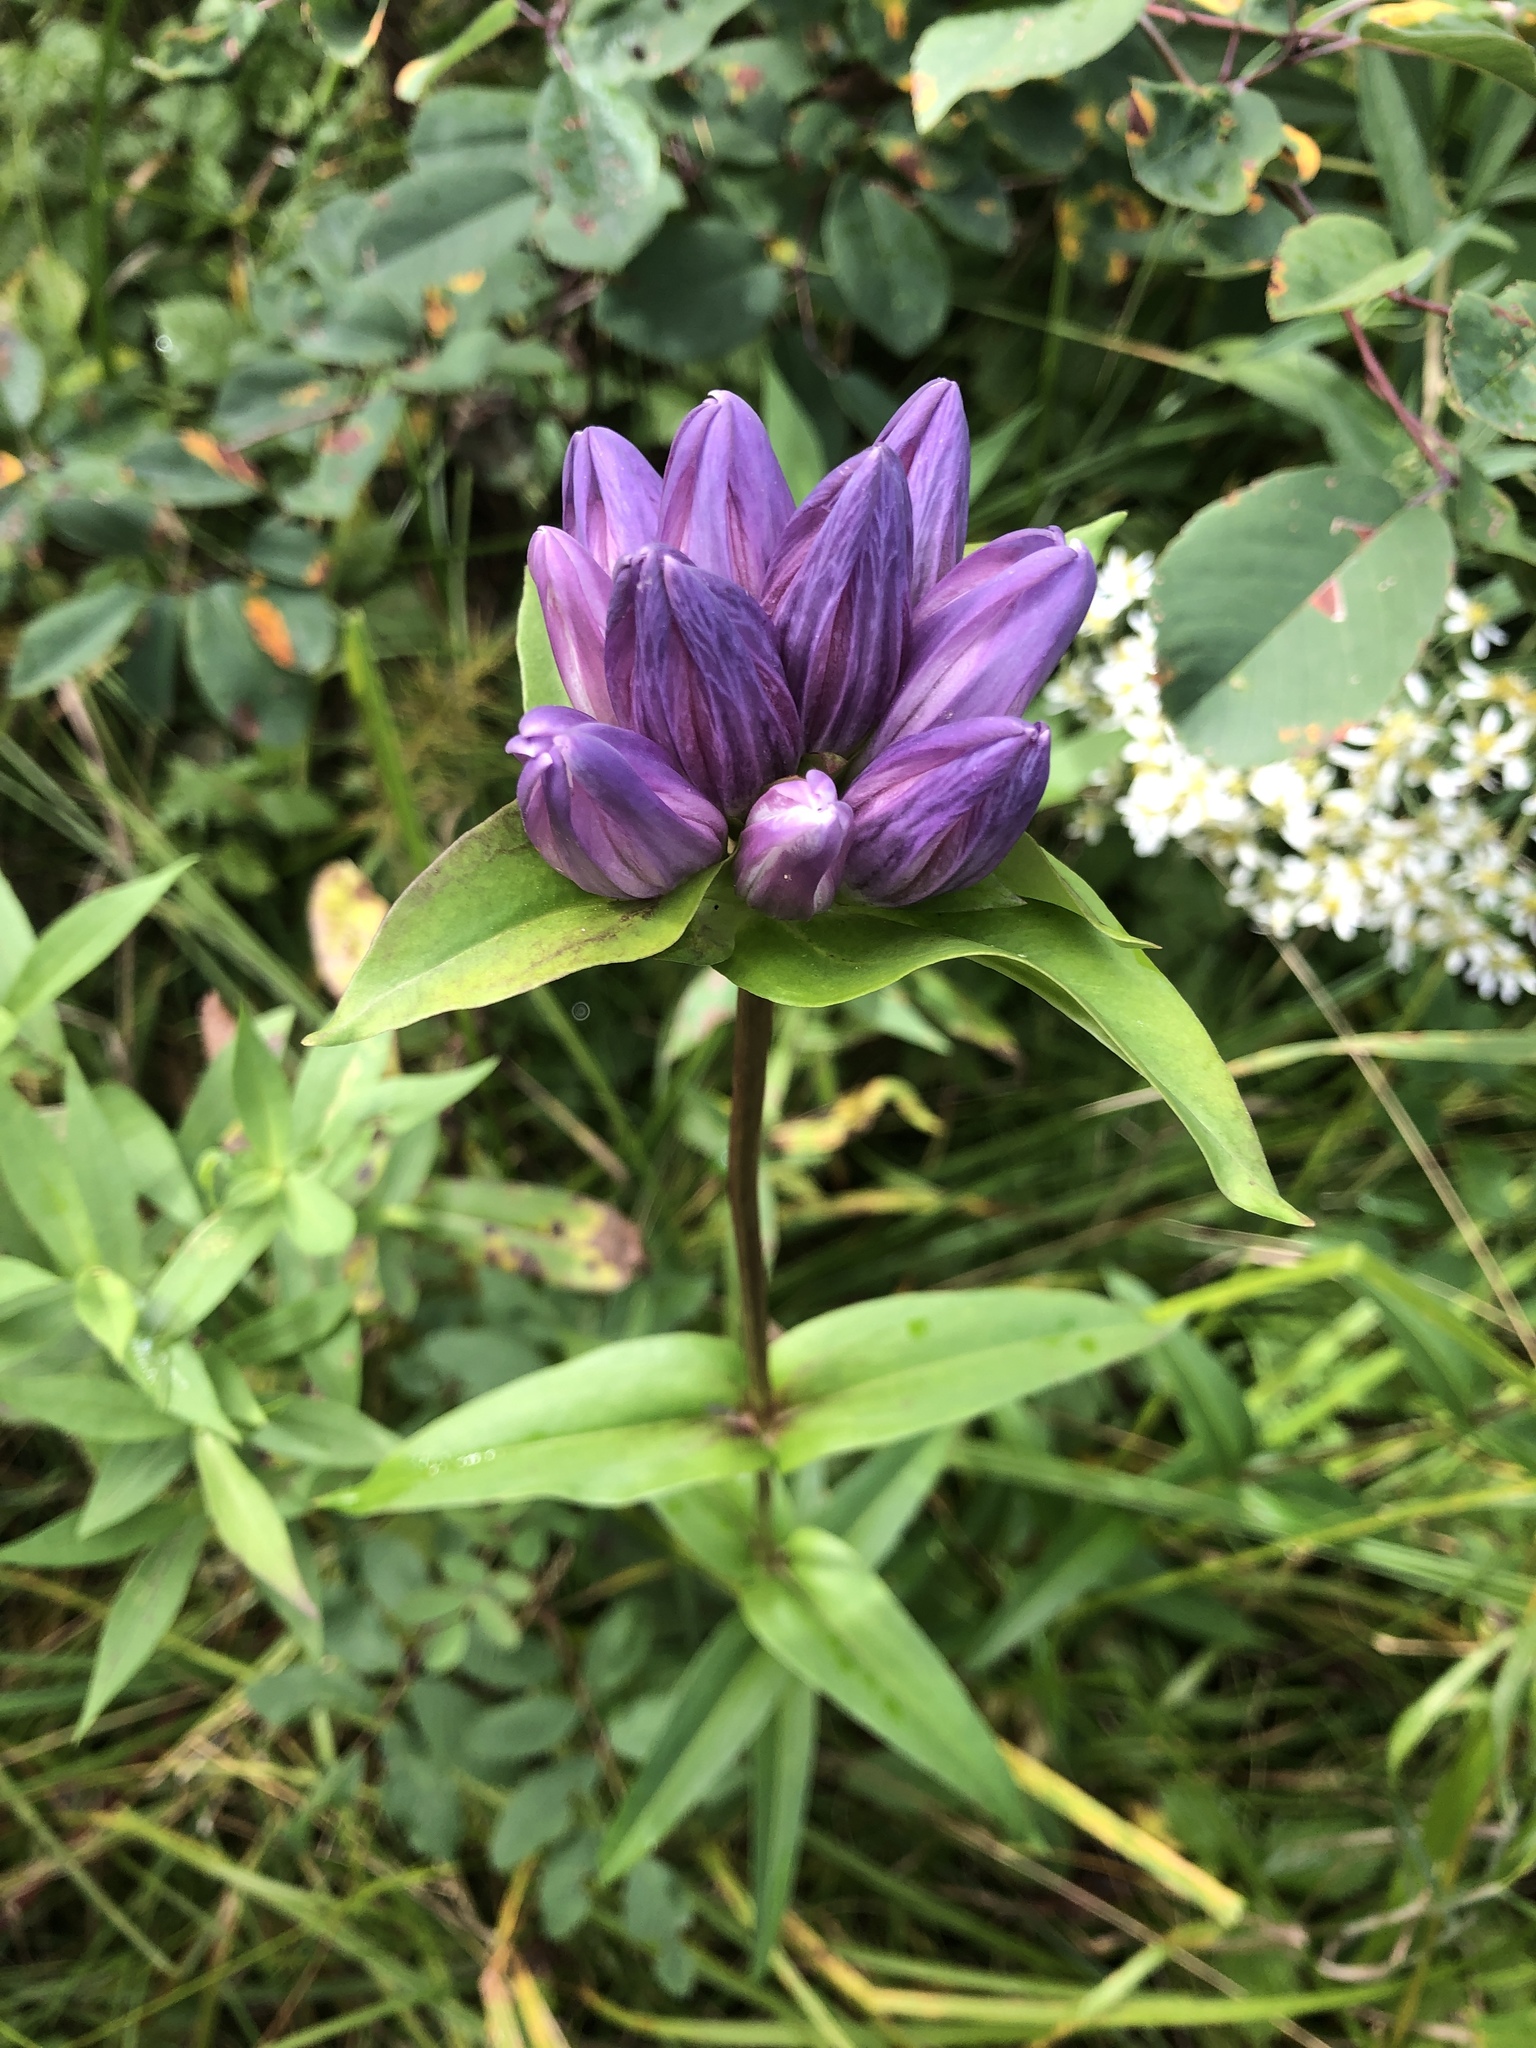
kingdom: Plantae
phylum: Tracheophyta
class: Magnoliopsida
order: Gentianales
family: Gentianaceae
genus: Gentiana
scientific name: Gentiana rubricaulis
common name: Purple-stemmed gentian
